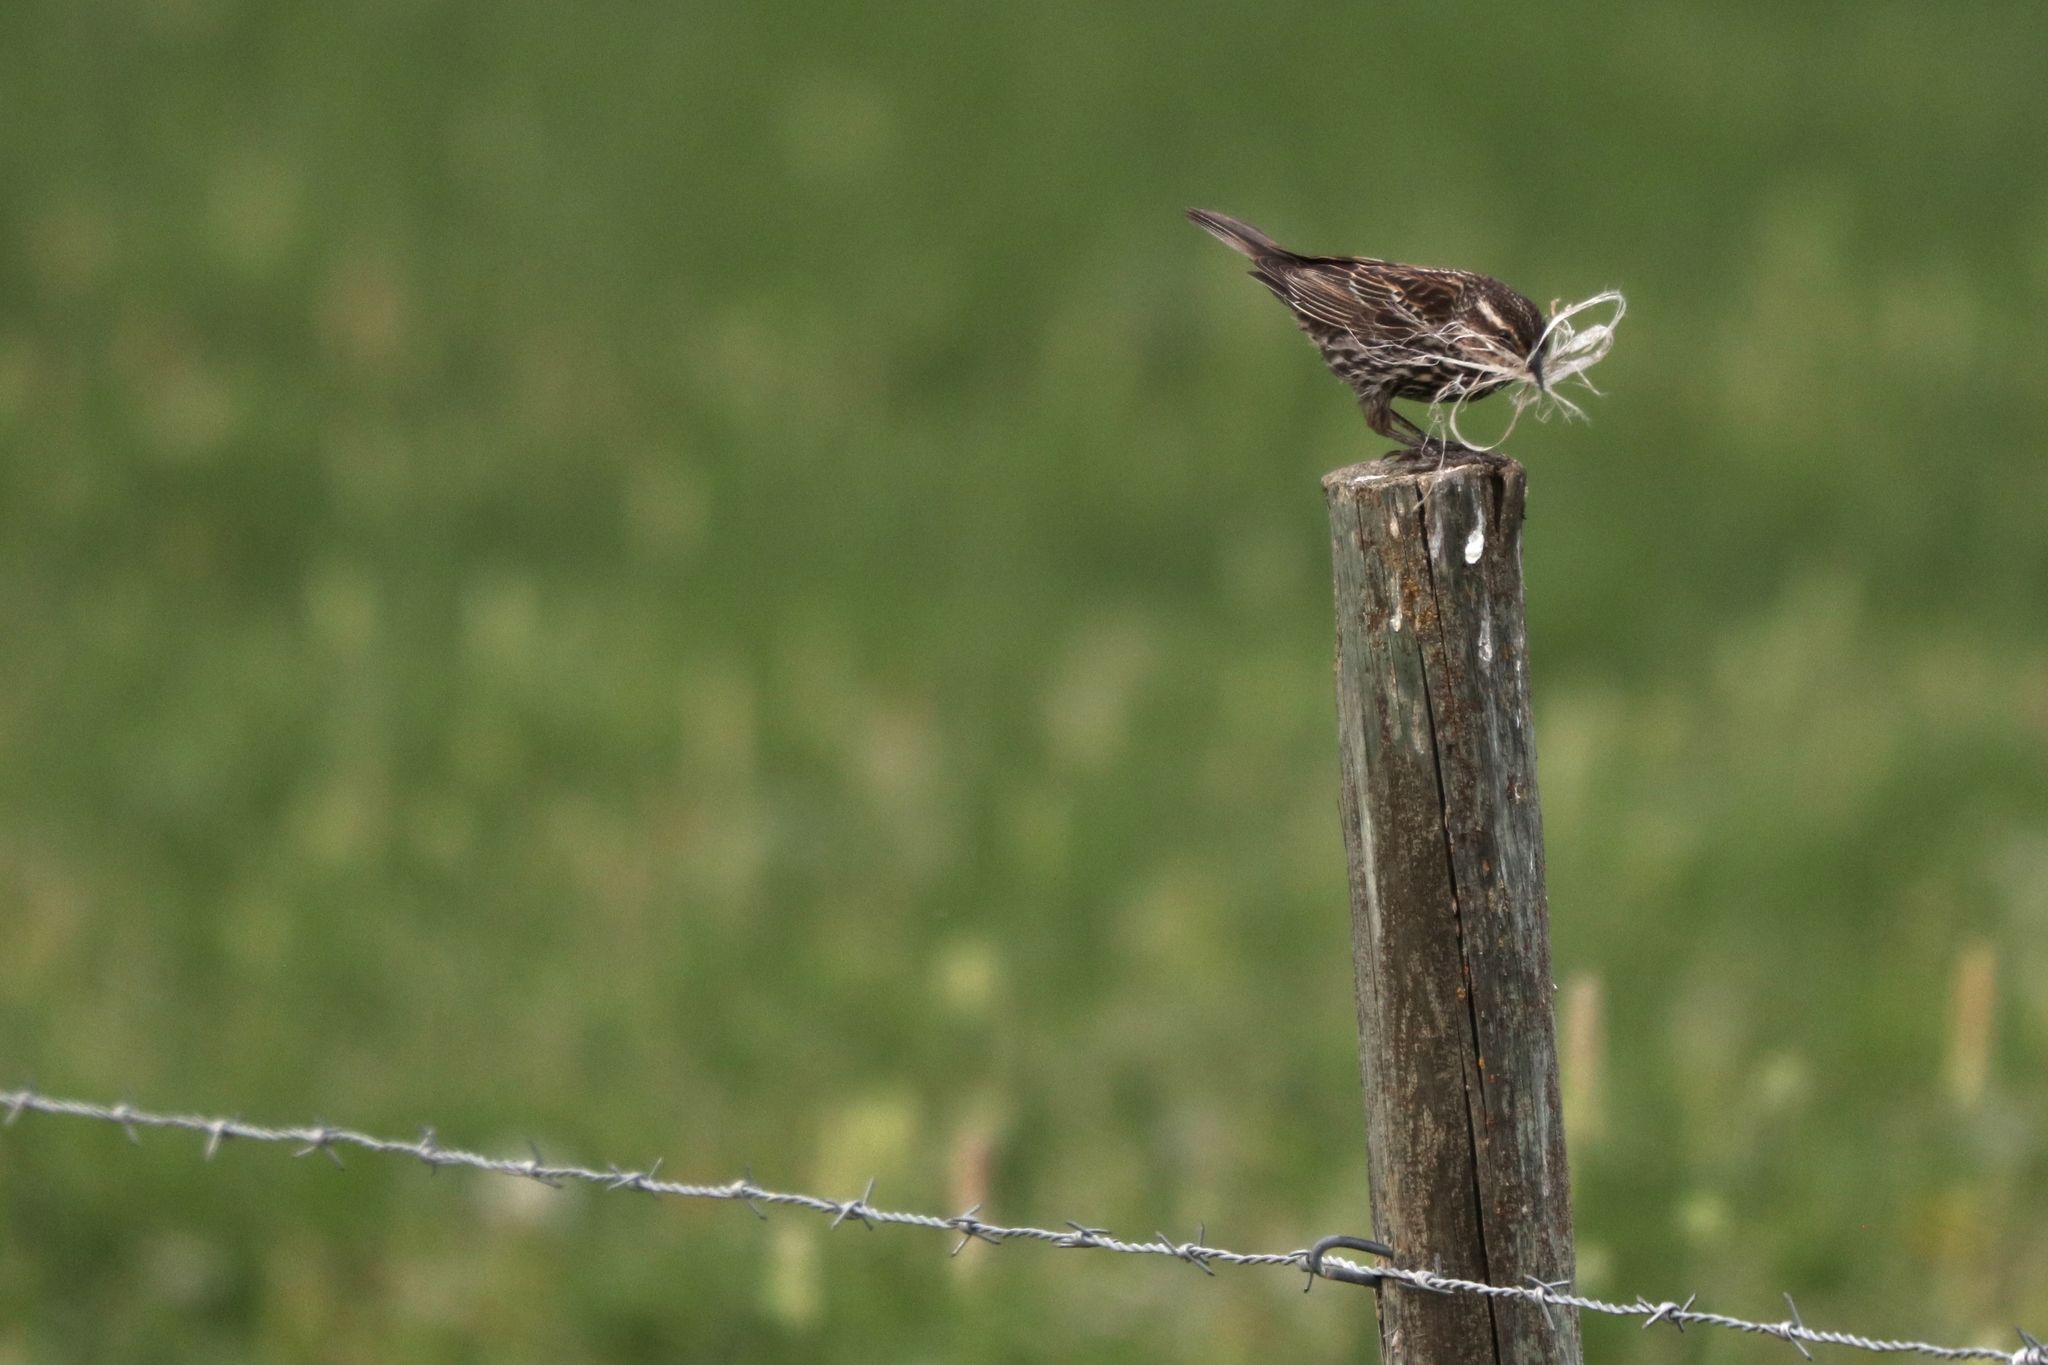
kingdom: Animalia
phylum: Chordata
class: Aves
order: Passeriformes
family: Icteridae
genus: Agelaius
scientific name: Agelaius phoeniceus
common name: Red-winged blackbird
